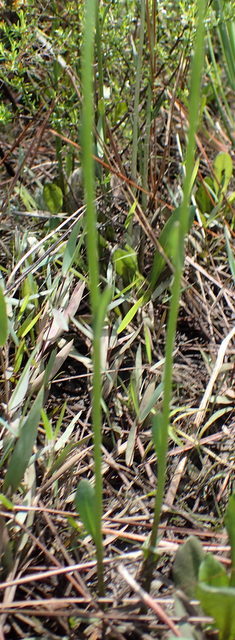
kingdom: Plantae
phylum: Tracheophyta
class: Magnoliopsida
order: Asterales
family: Asteraceae
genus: Erigeron
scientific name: Erigeron vernus
